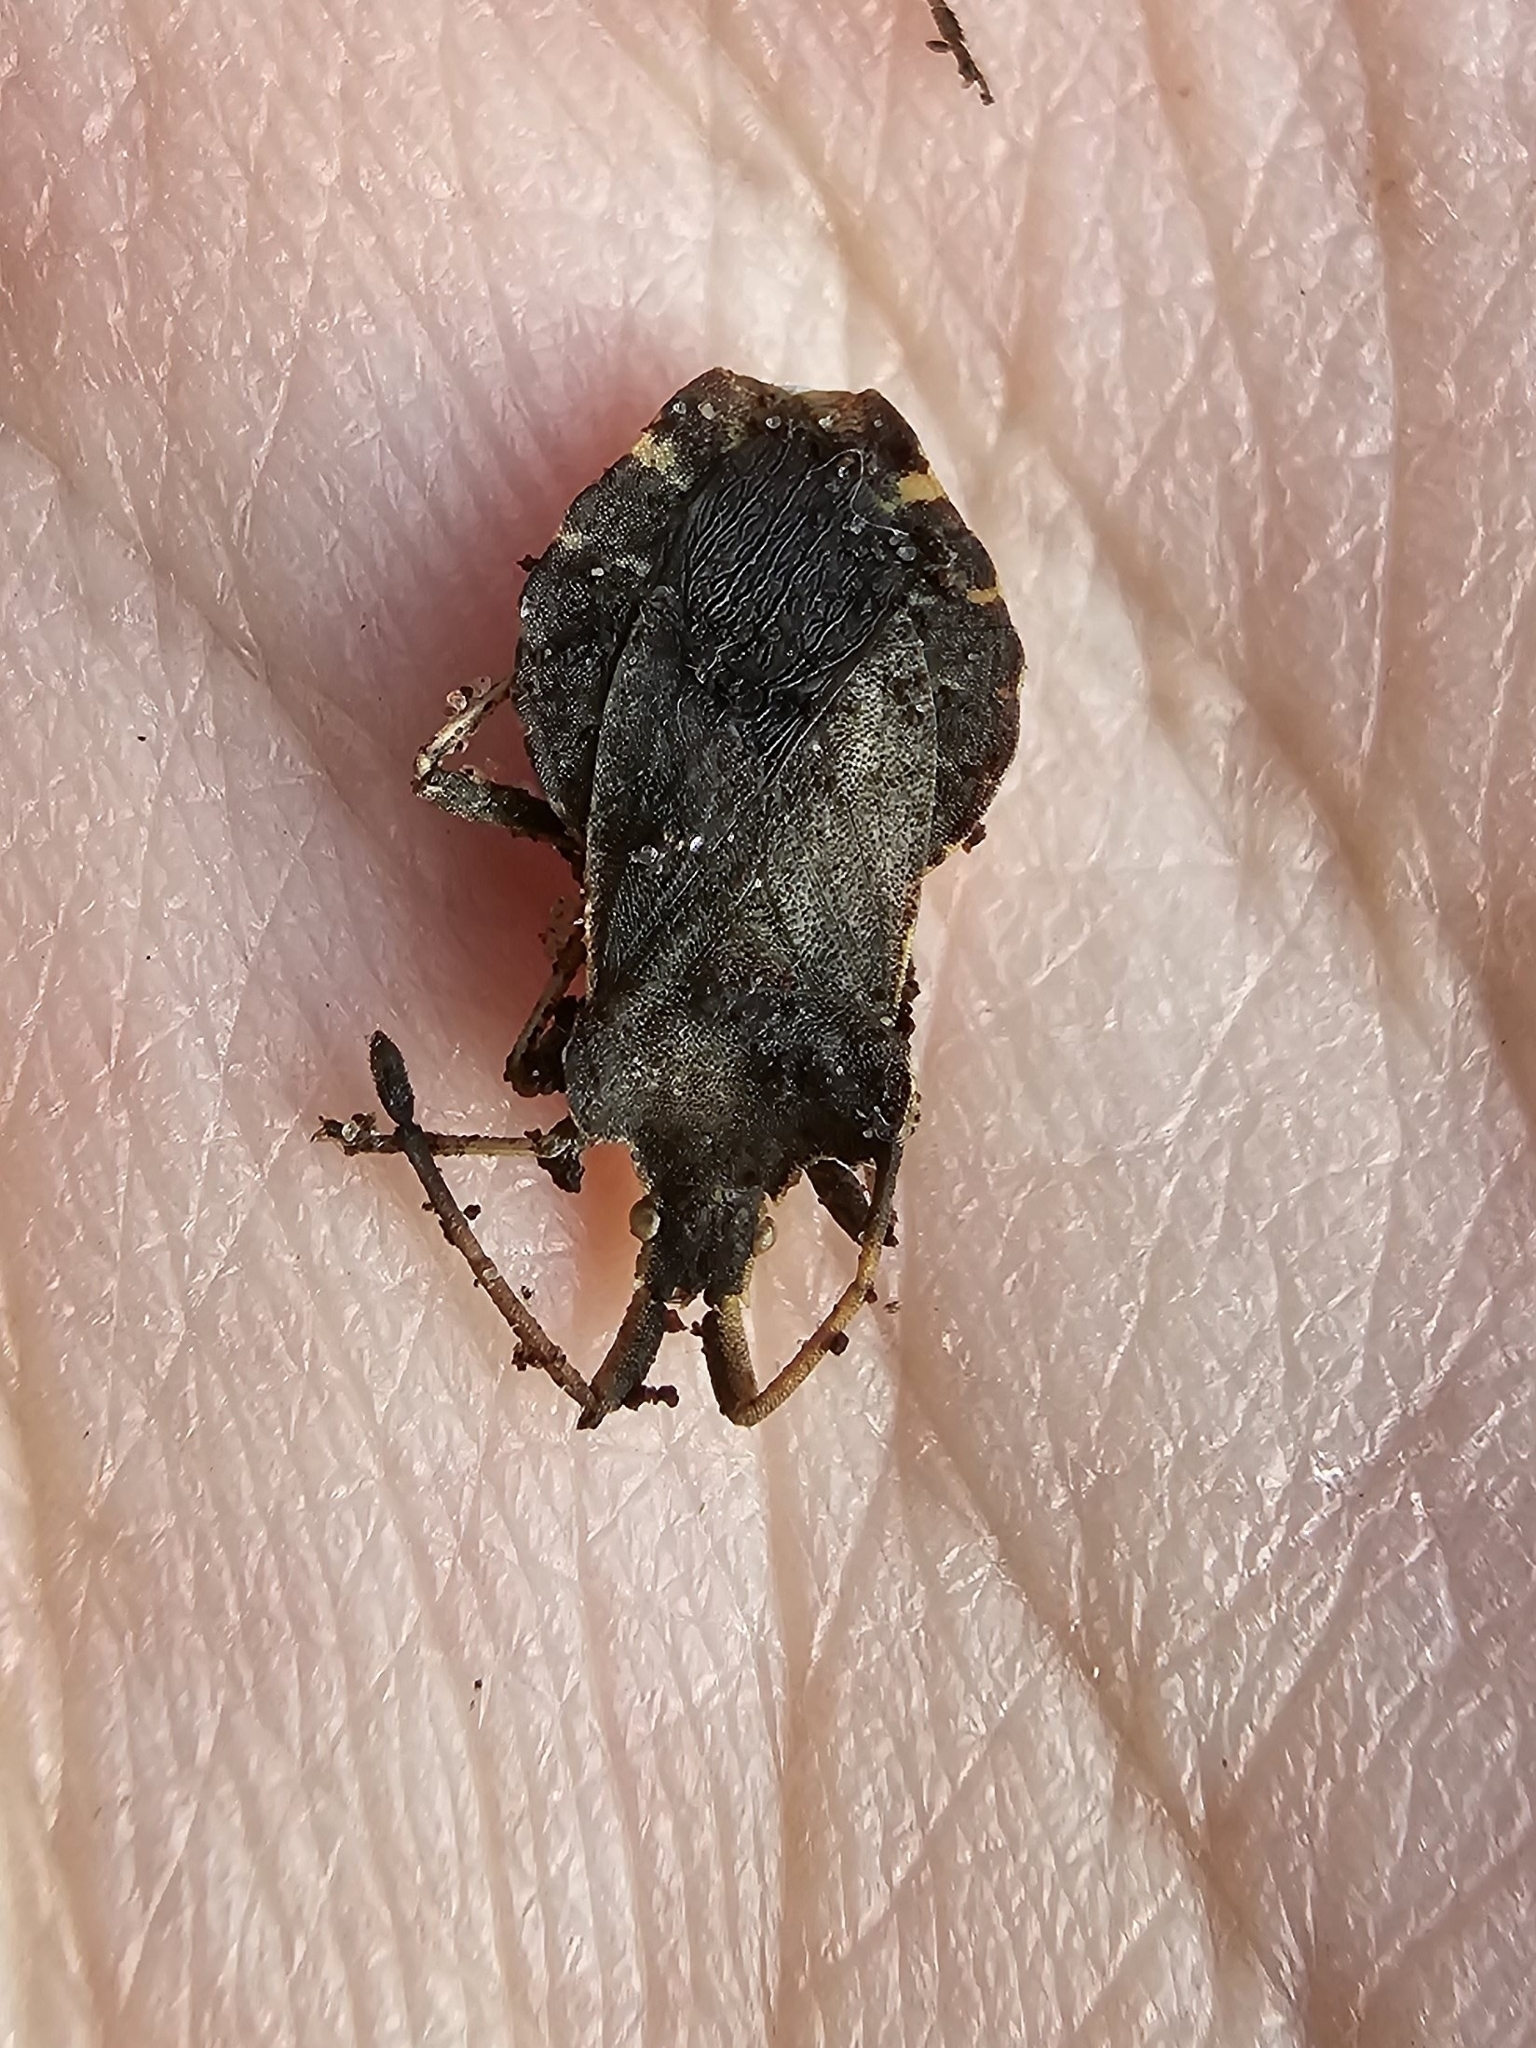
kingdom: Animalia
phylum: Arthropoda
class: Insecta
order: Hemiptera
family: Coreidae
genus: Enoplops
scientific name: Enoplops scapha
